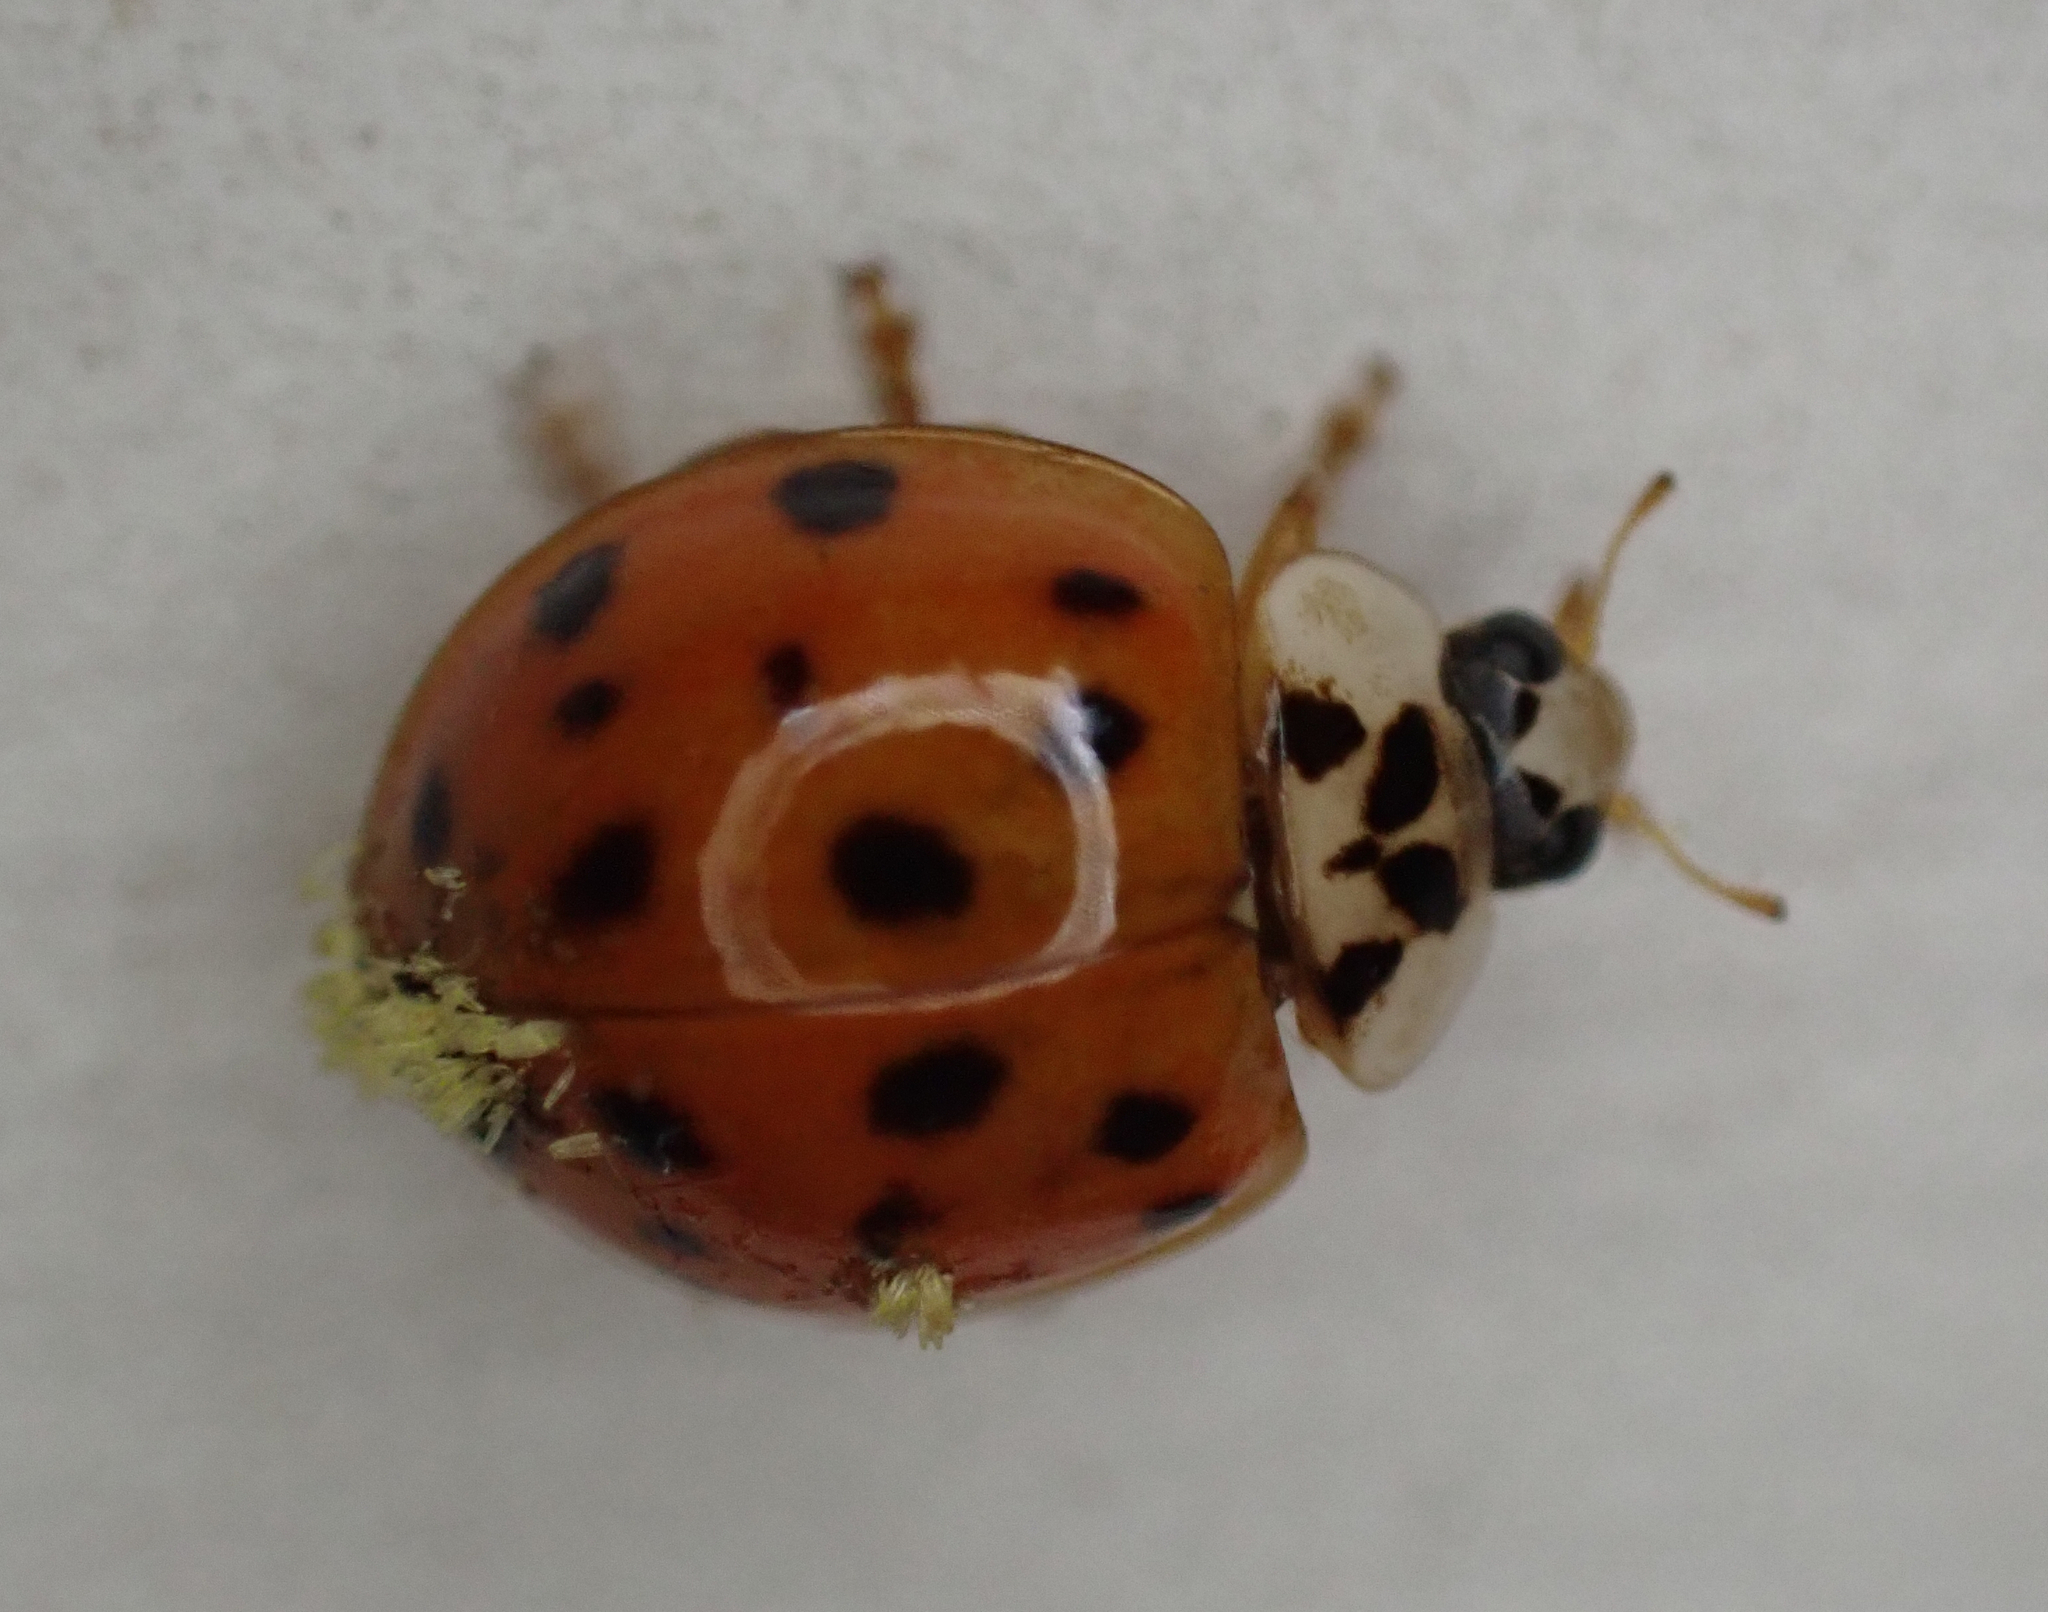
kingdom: Animalia
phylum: Arthropoda
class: Insecta
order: Coleoptera
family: Coccinellidae
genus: Harmonia
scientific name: Harmonia axyridis
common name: Harlequin ladybird
